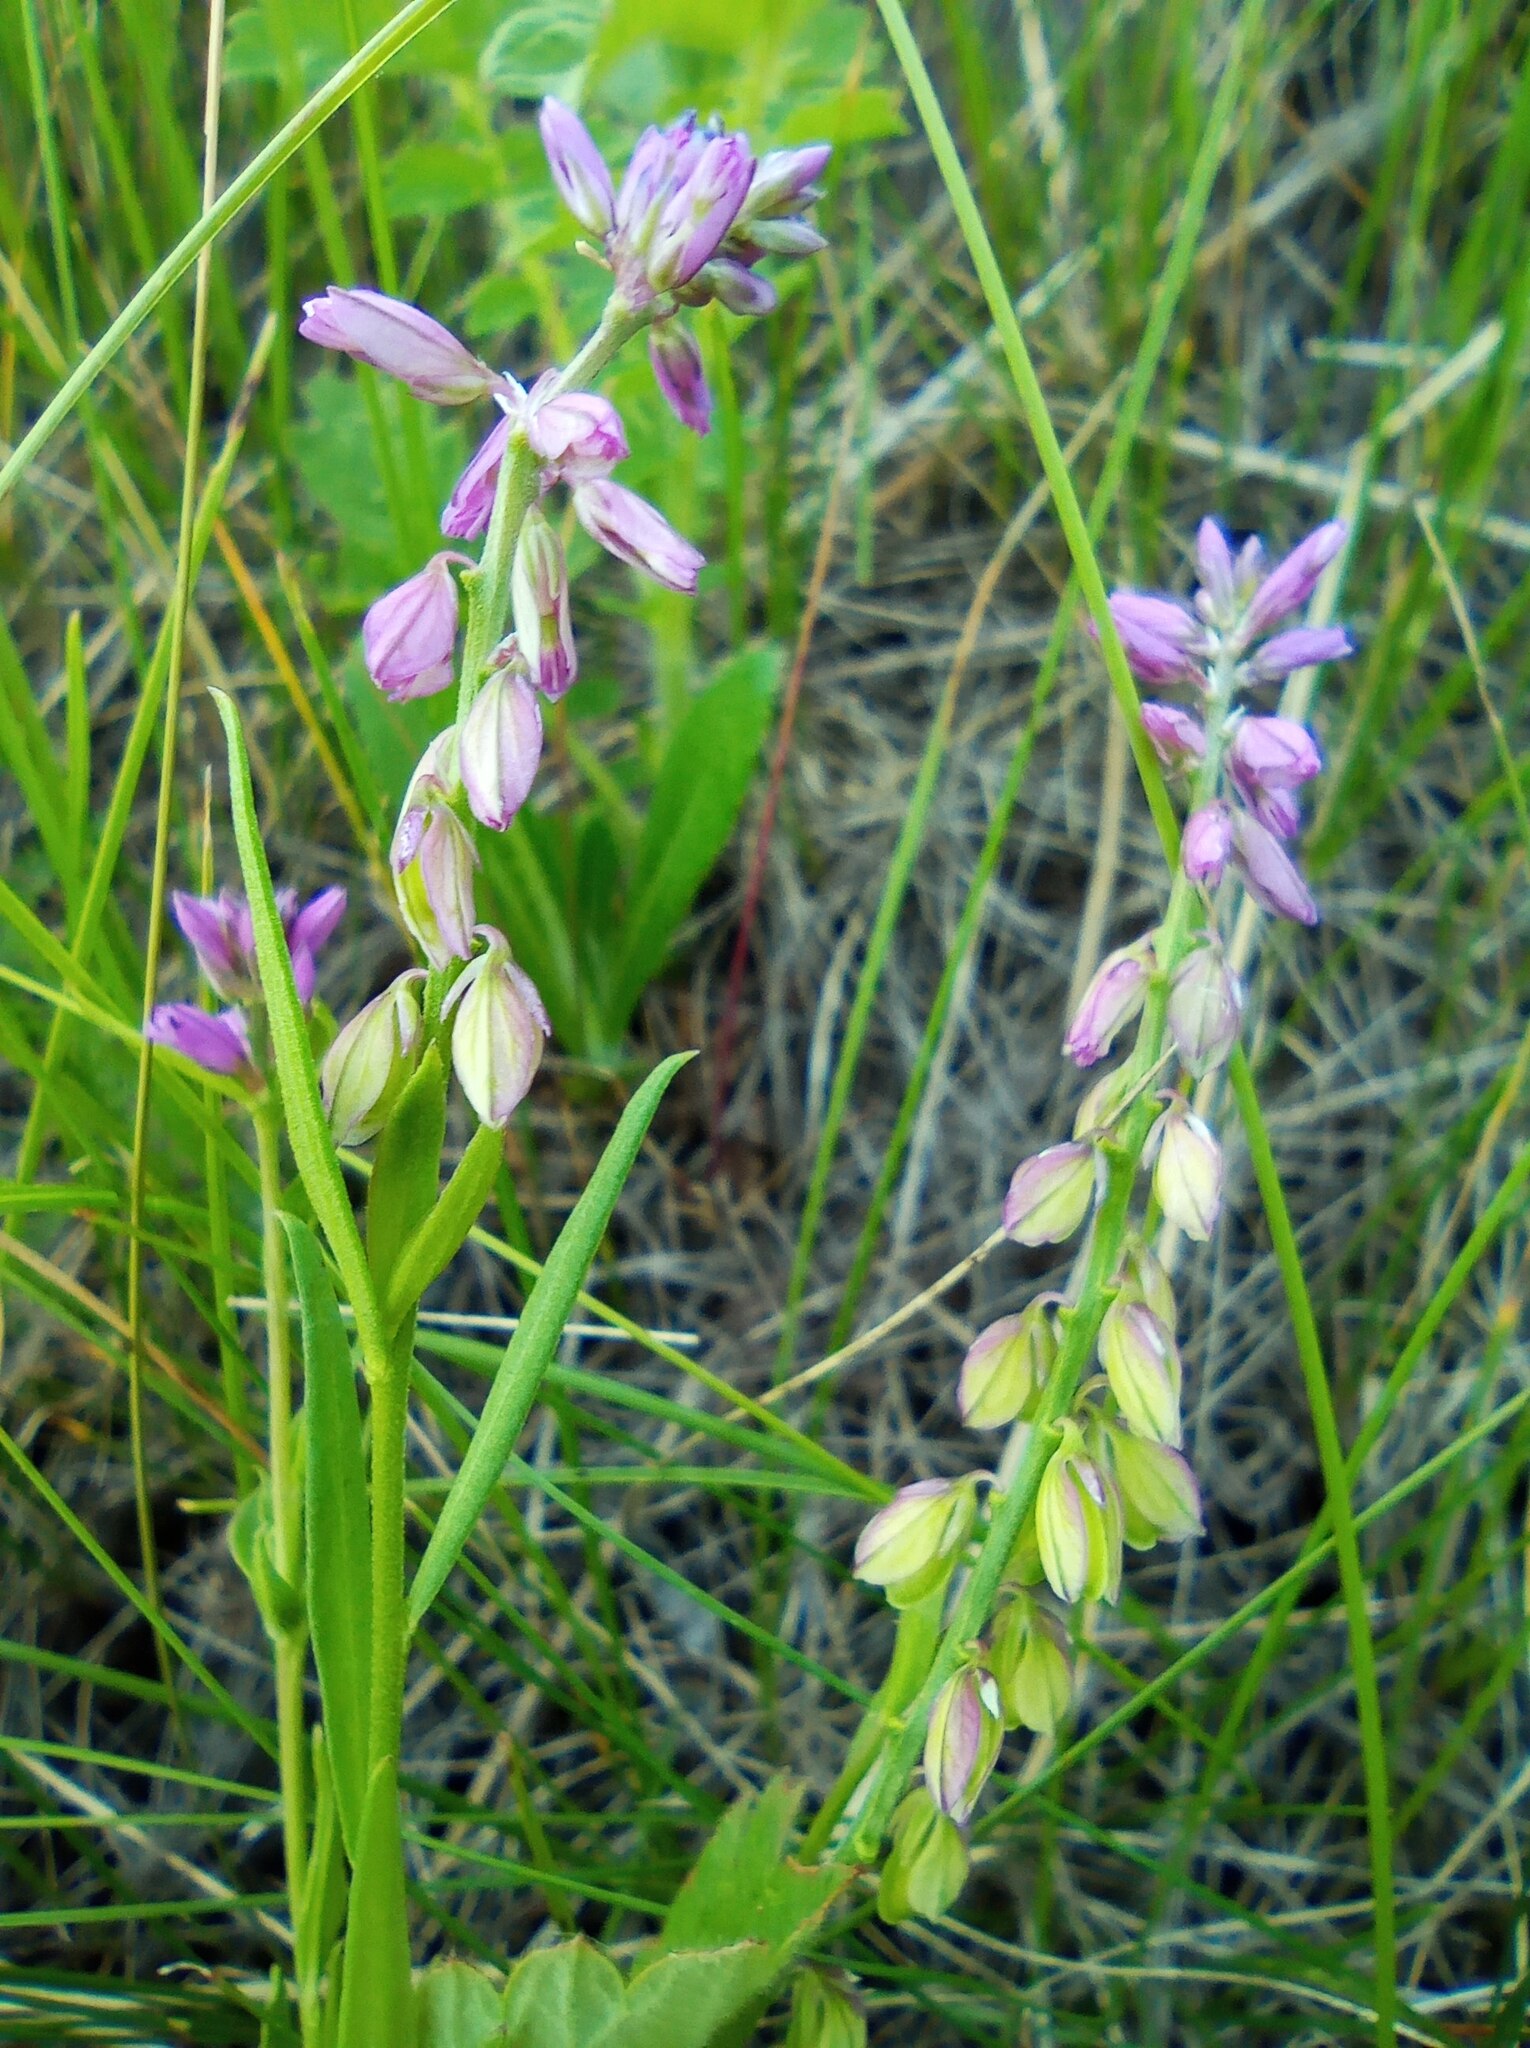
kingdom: Plantae
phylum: Tracheophyta
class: Magnoliopsida
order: Fabales
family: Polygalaceae
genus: Polygala
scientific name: Polygala comosa
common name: Tufted milkwort
